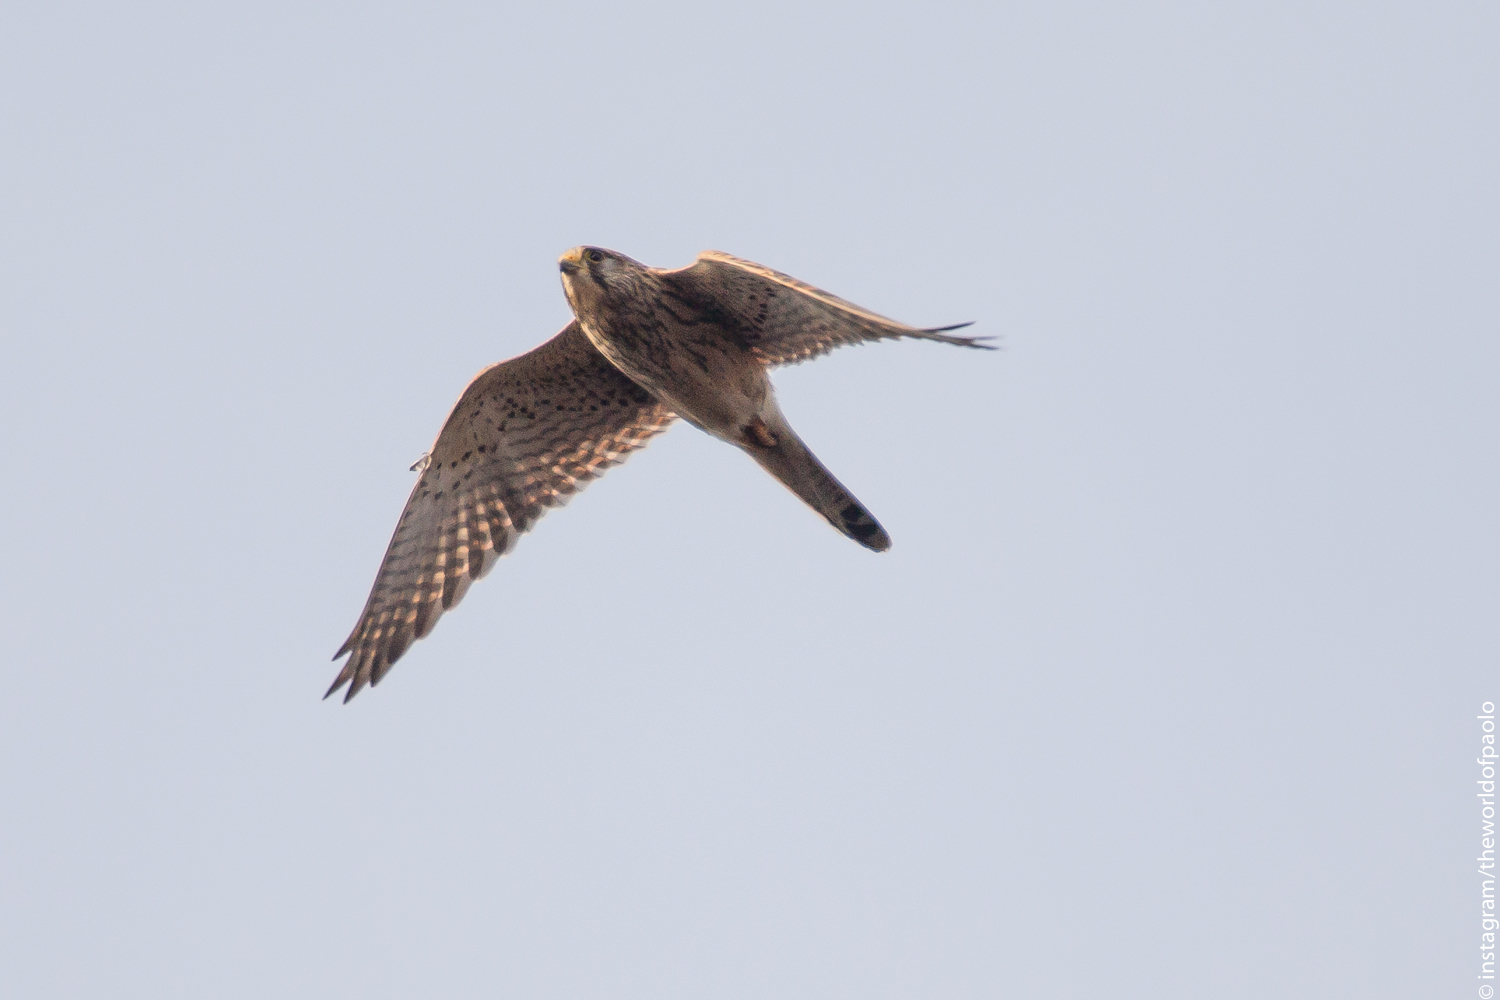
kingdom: Animalia
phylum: Chordata
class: Aves
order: Falconiformes
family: Falconidae
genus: Falco
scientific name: Falco tinnunculus
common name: Common kestrel
